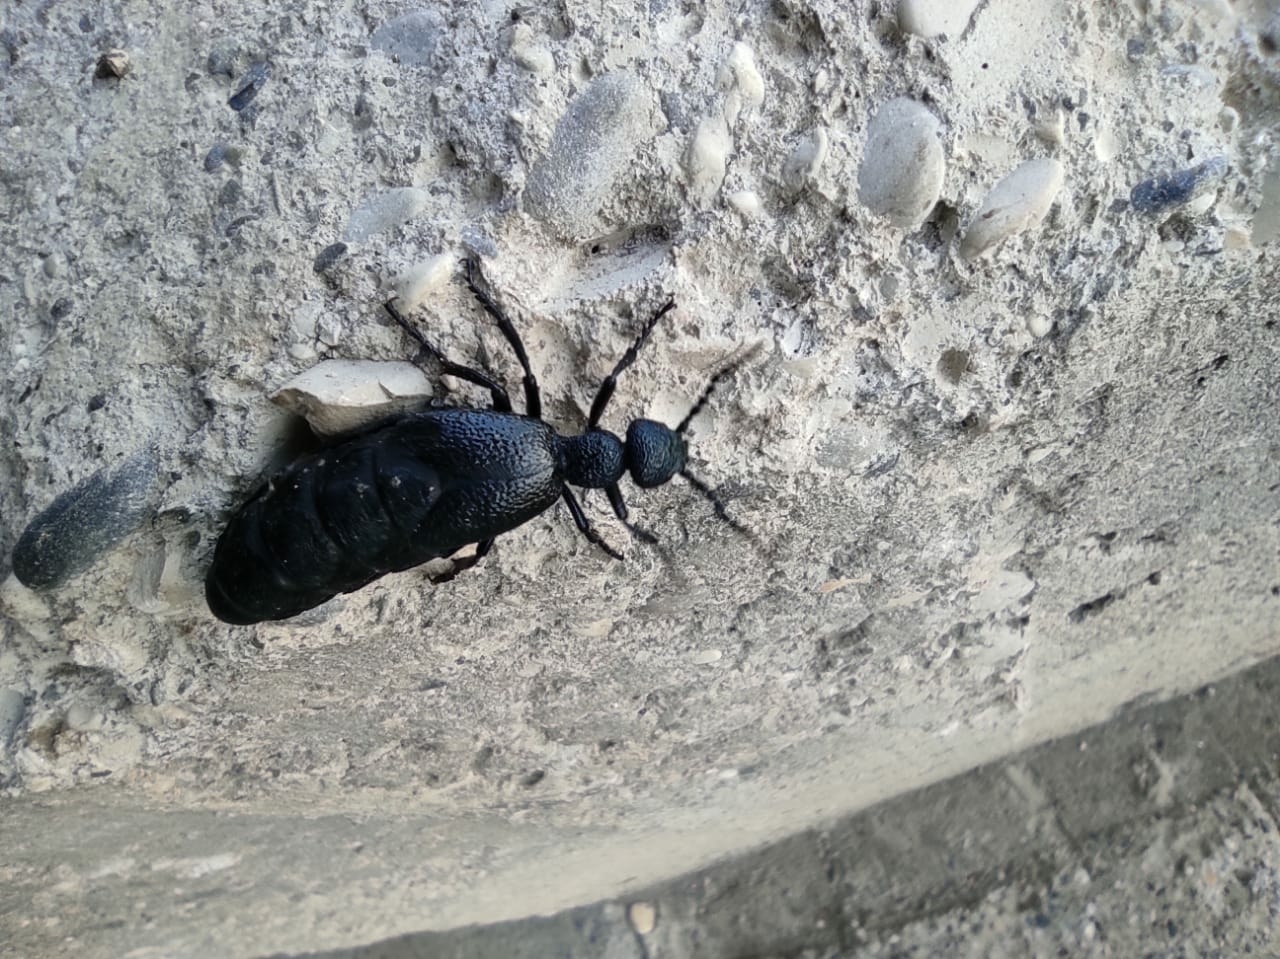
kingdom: Animalia
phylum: Arthropoda
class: Insecta
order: Coleoptera
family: Meloidae
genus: Meloe
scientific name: Meloe proscarabaeus
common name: Black oil-beetle
